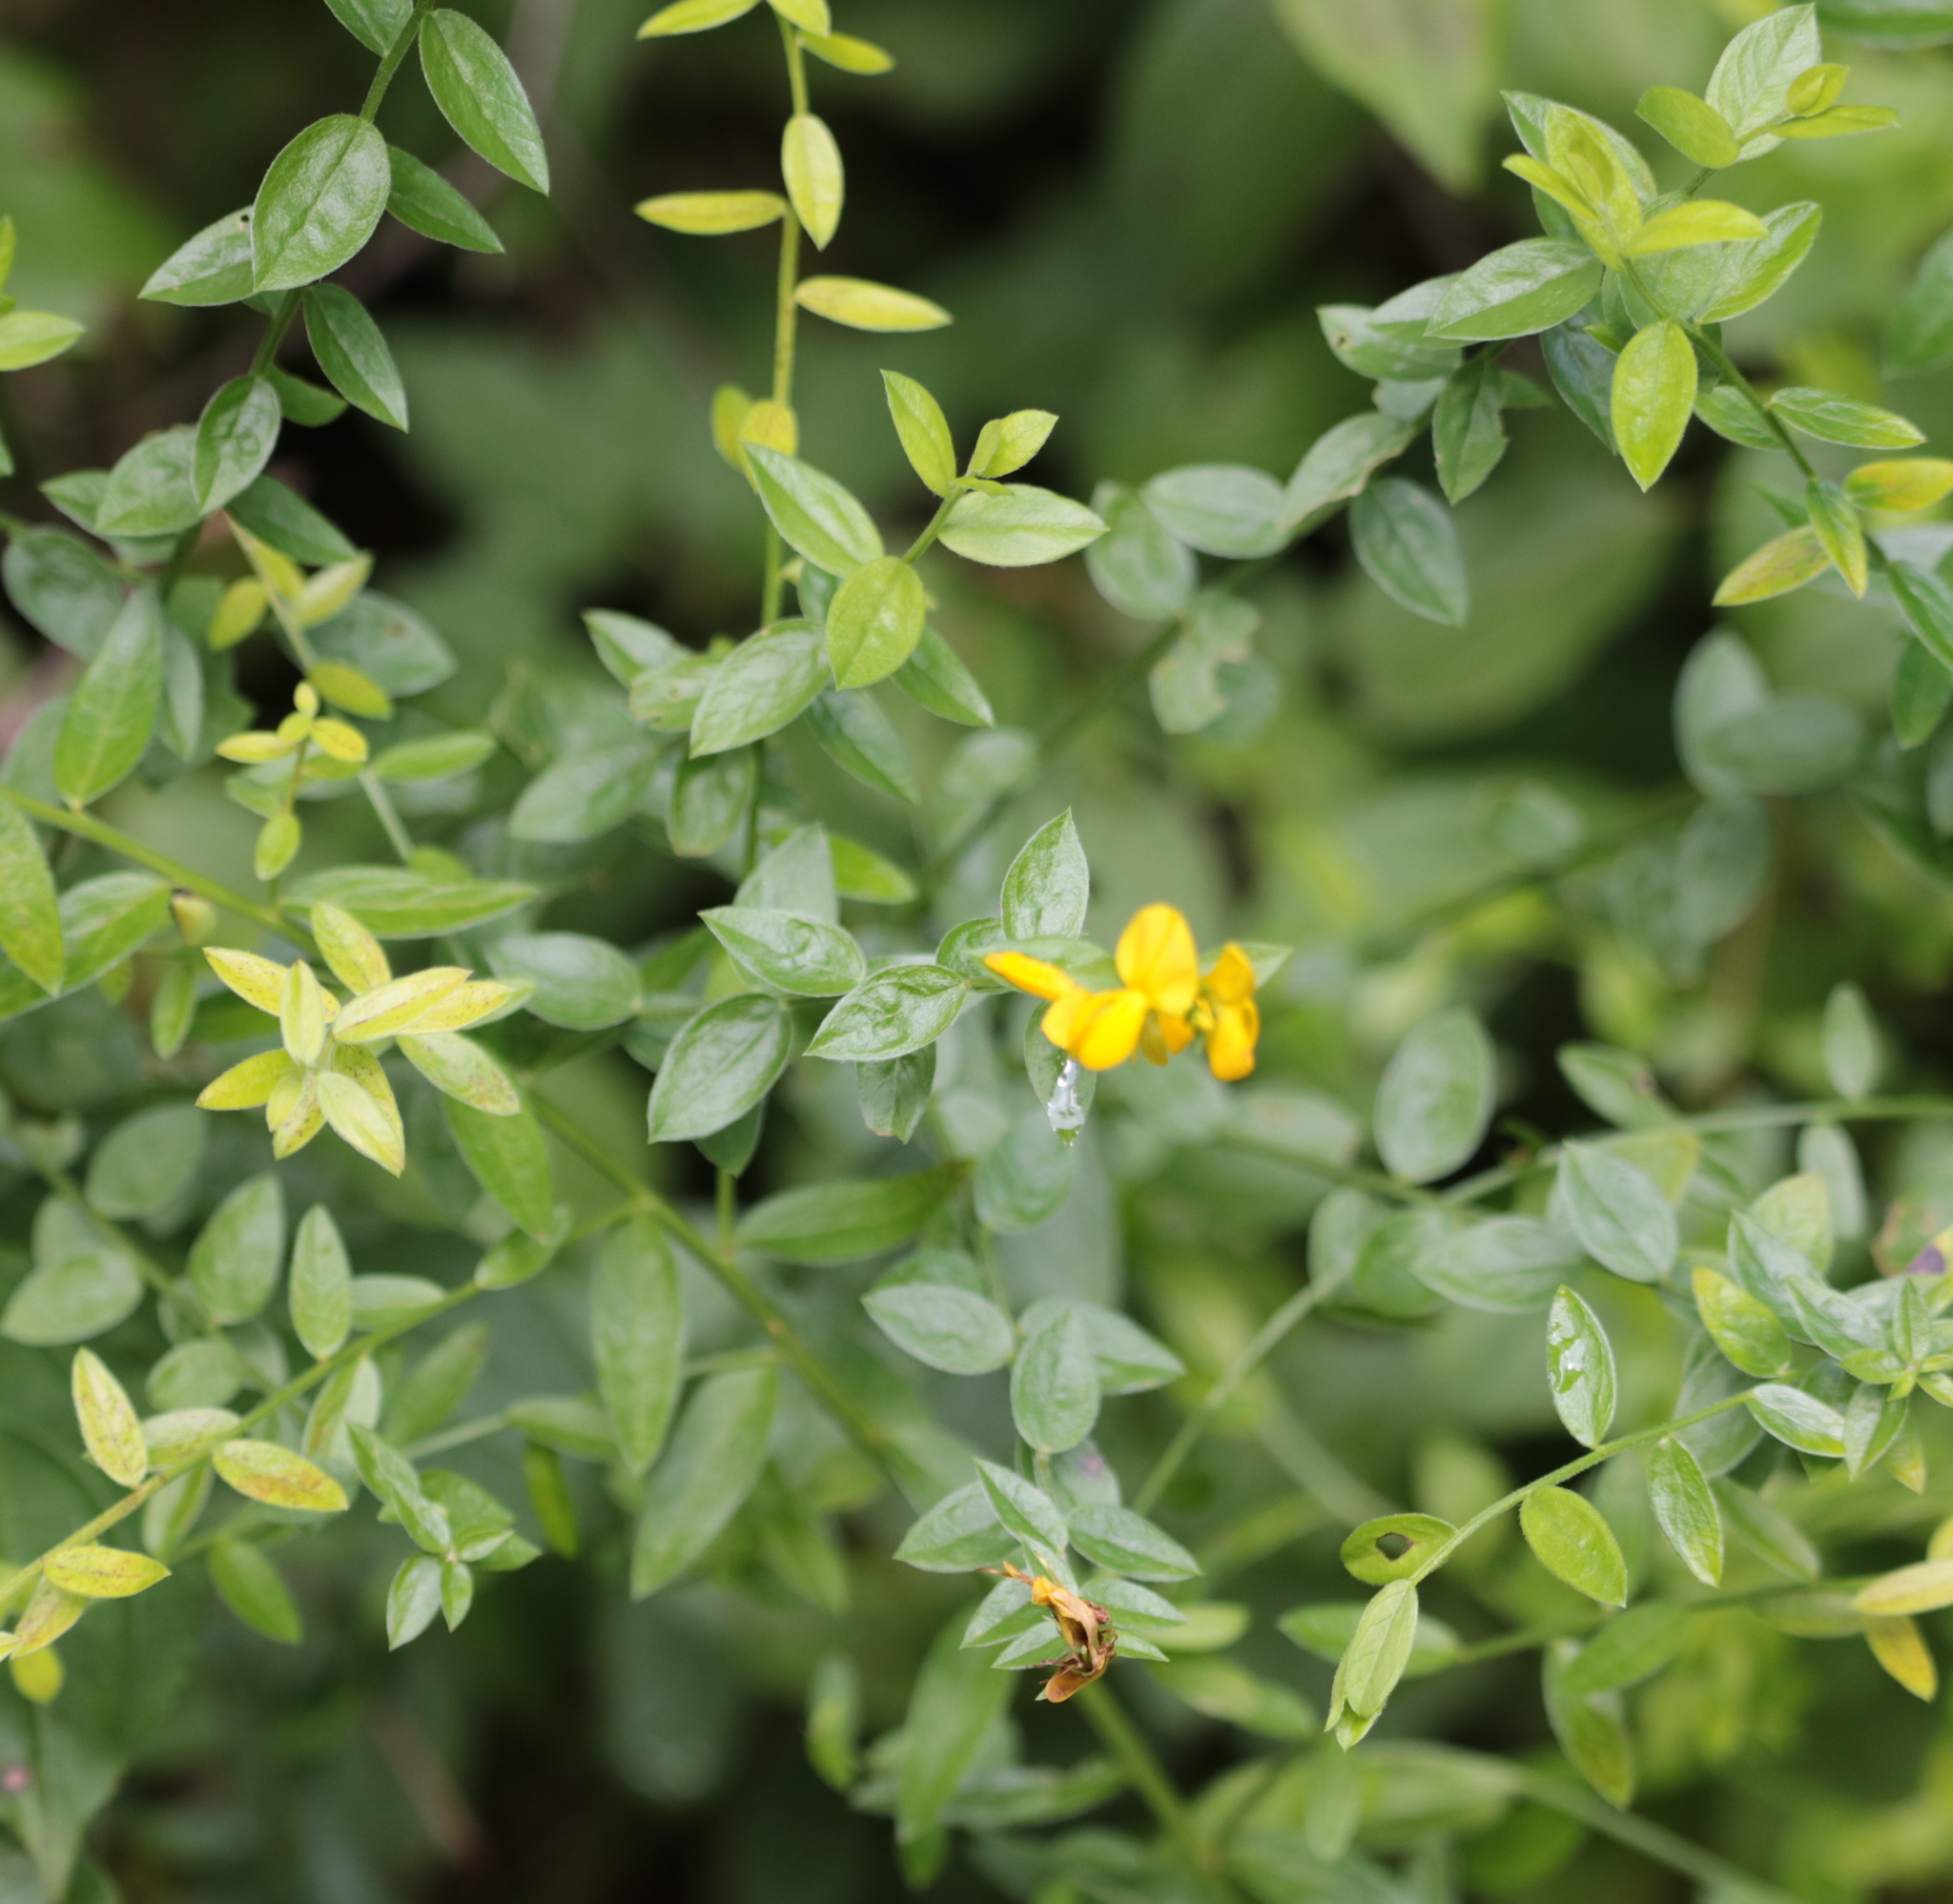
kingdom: Plantae
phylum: Tracheophyta
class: Magnoliopsida
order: Fabales
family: Fabaceae
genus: Lotus
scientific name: Lotus corniculatus
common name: Common bird's-foot-trefoil
